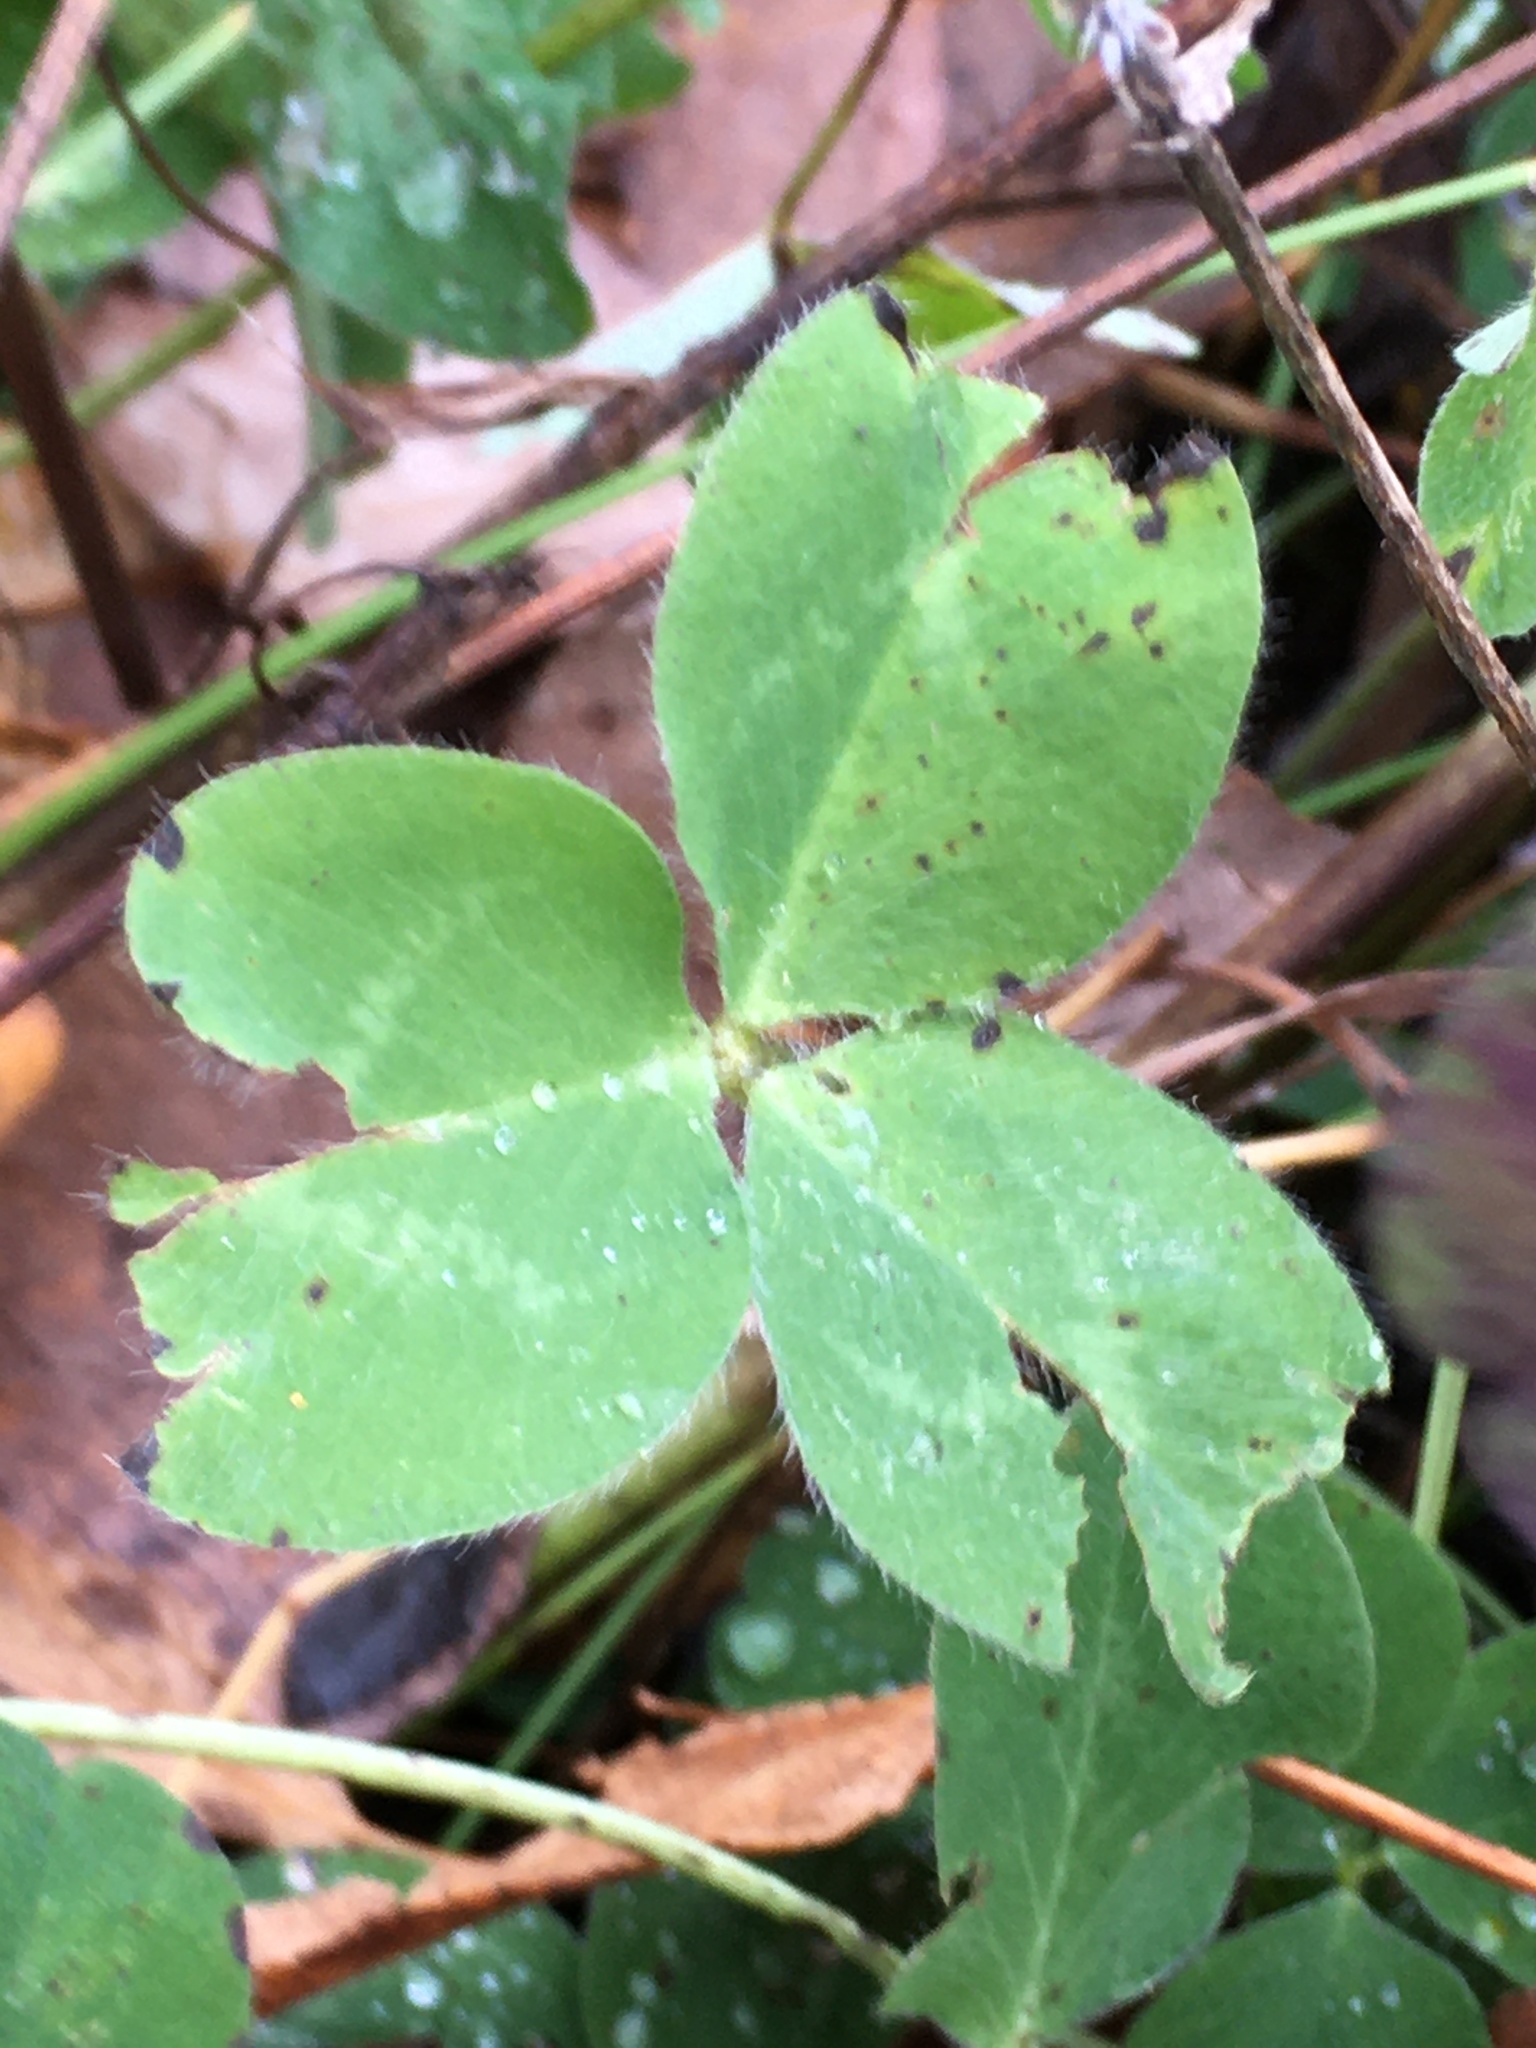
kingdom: Plantae
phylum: Tracheophyta
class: Magnoliopsida
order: Fabales
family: Fabaceae
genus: Trifolium
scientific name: Trifolium pratense
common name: Red clover
